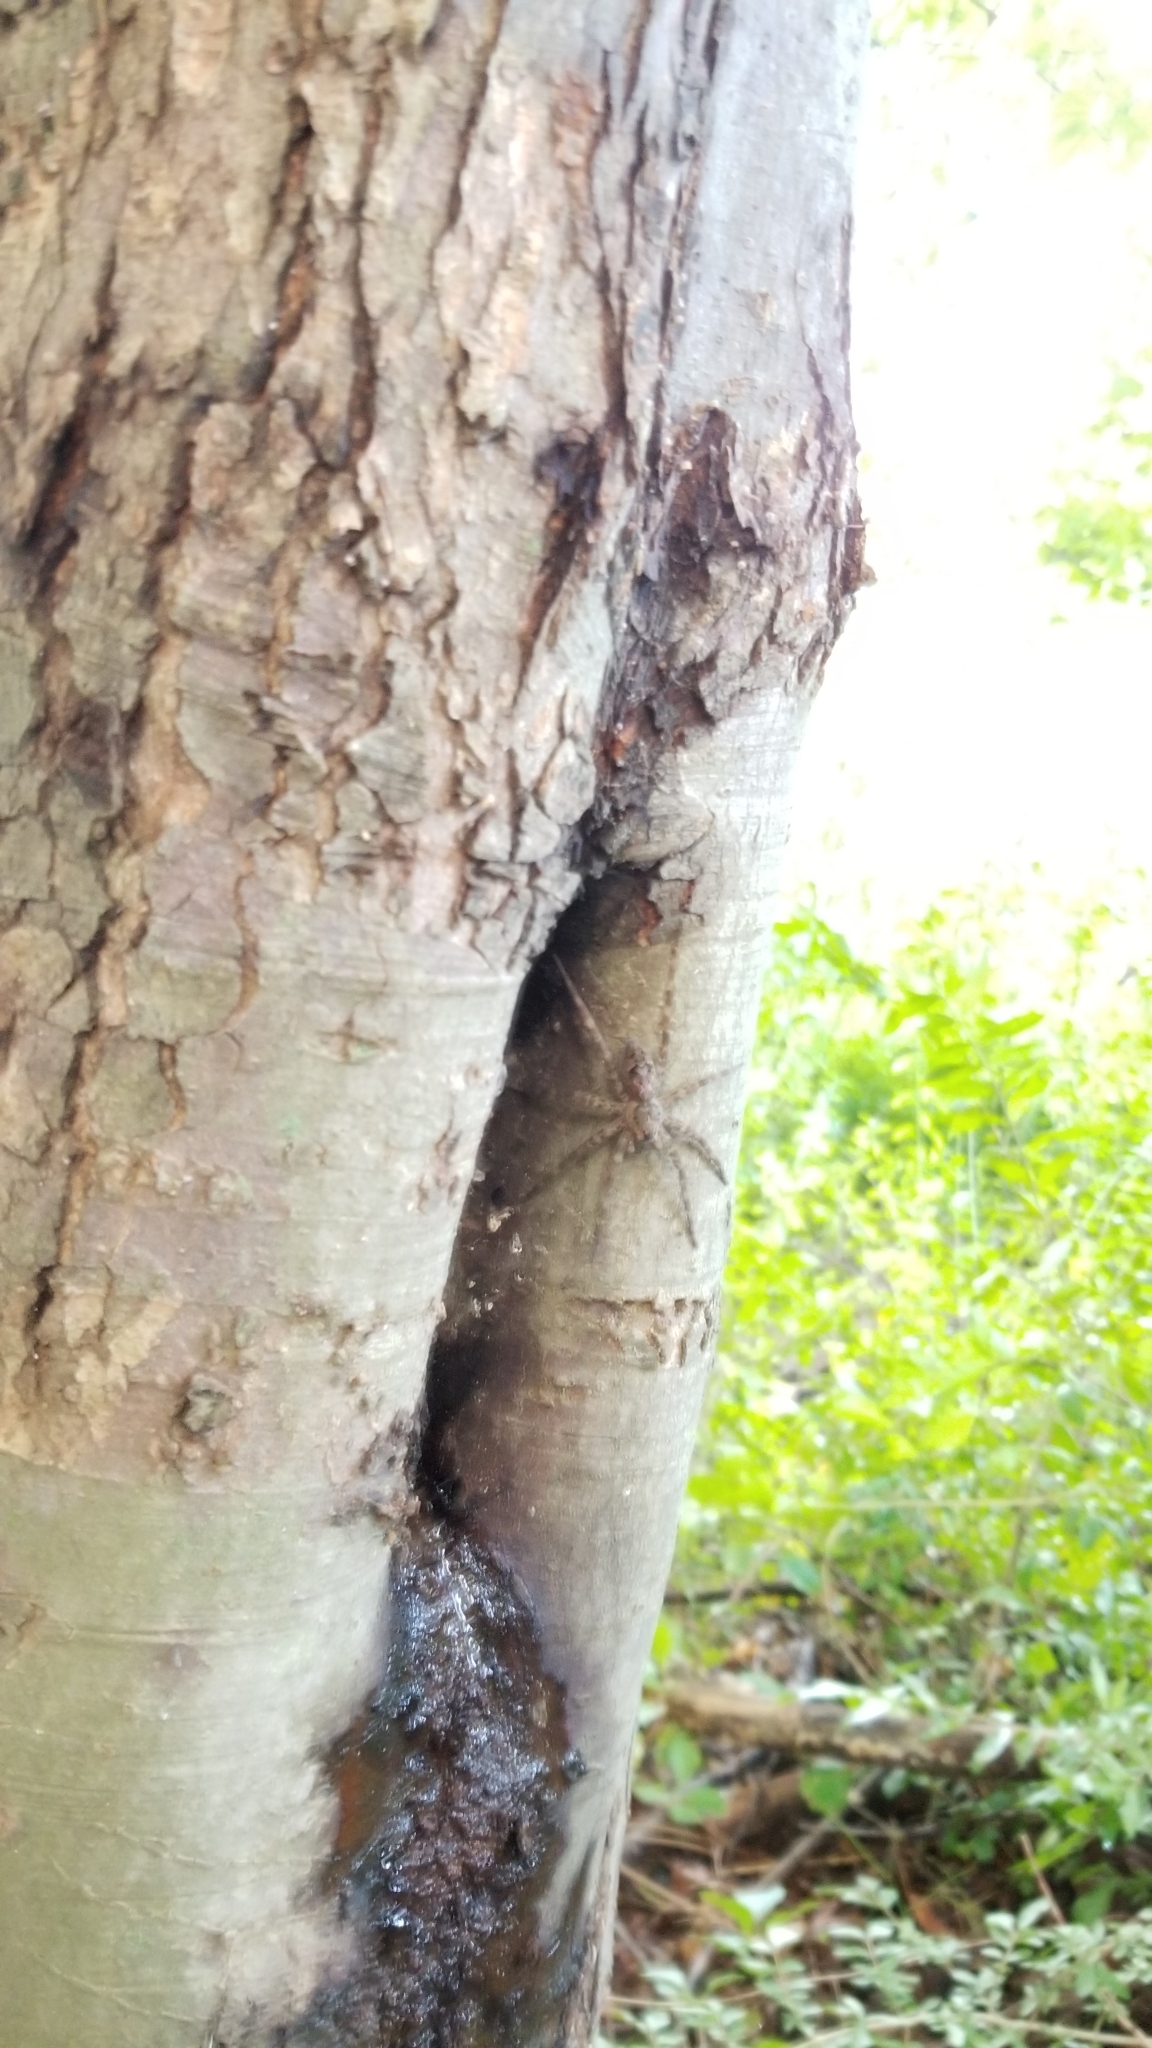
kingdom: Animalia
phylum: Arthropoda
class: Arachnida
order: Araneae
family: Pisauridae
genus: Dolomedes
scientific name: Dolomedes tenebrosus
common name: Dark fishing spider
